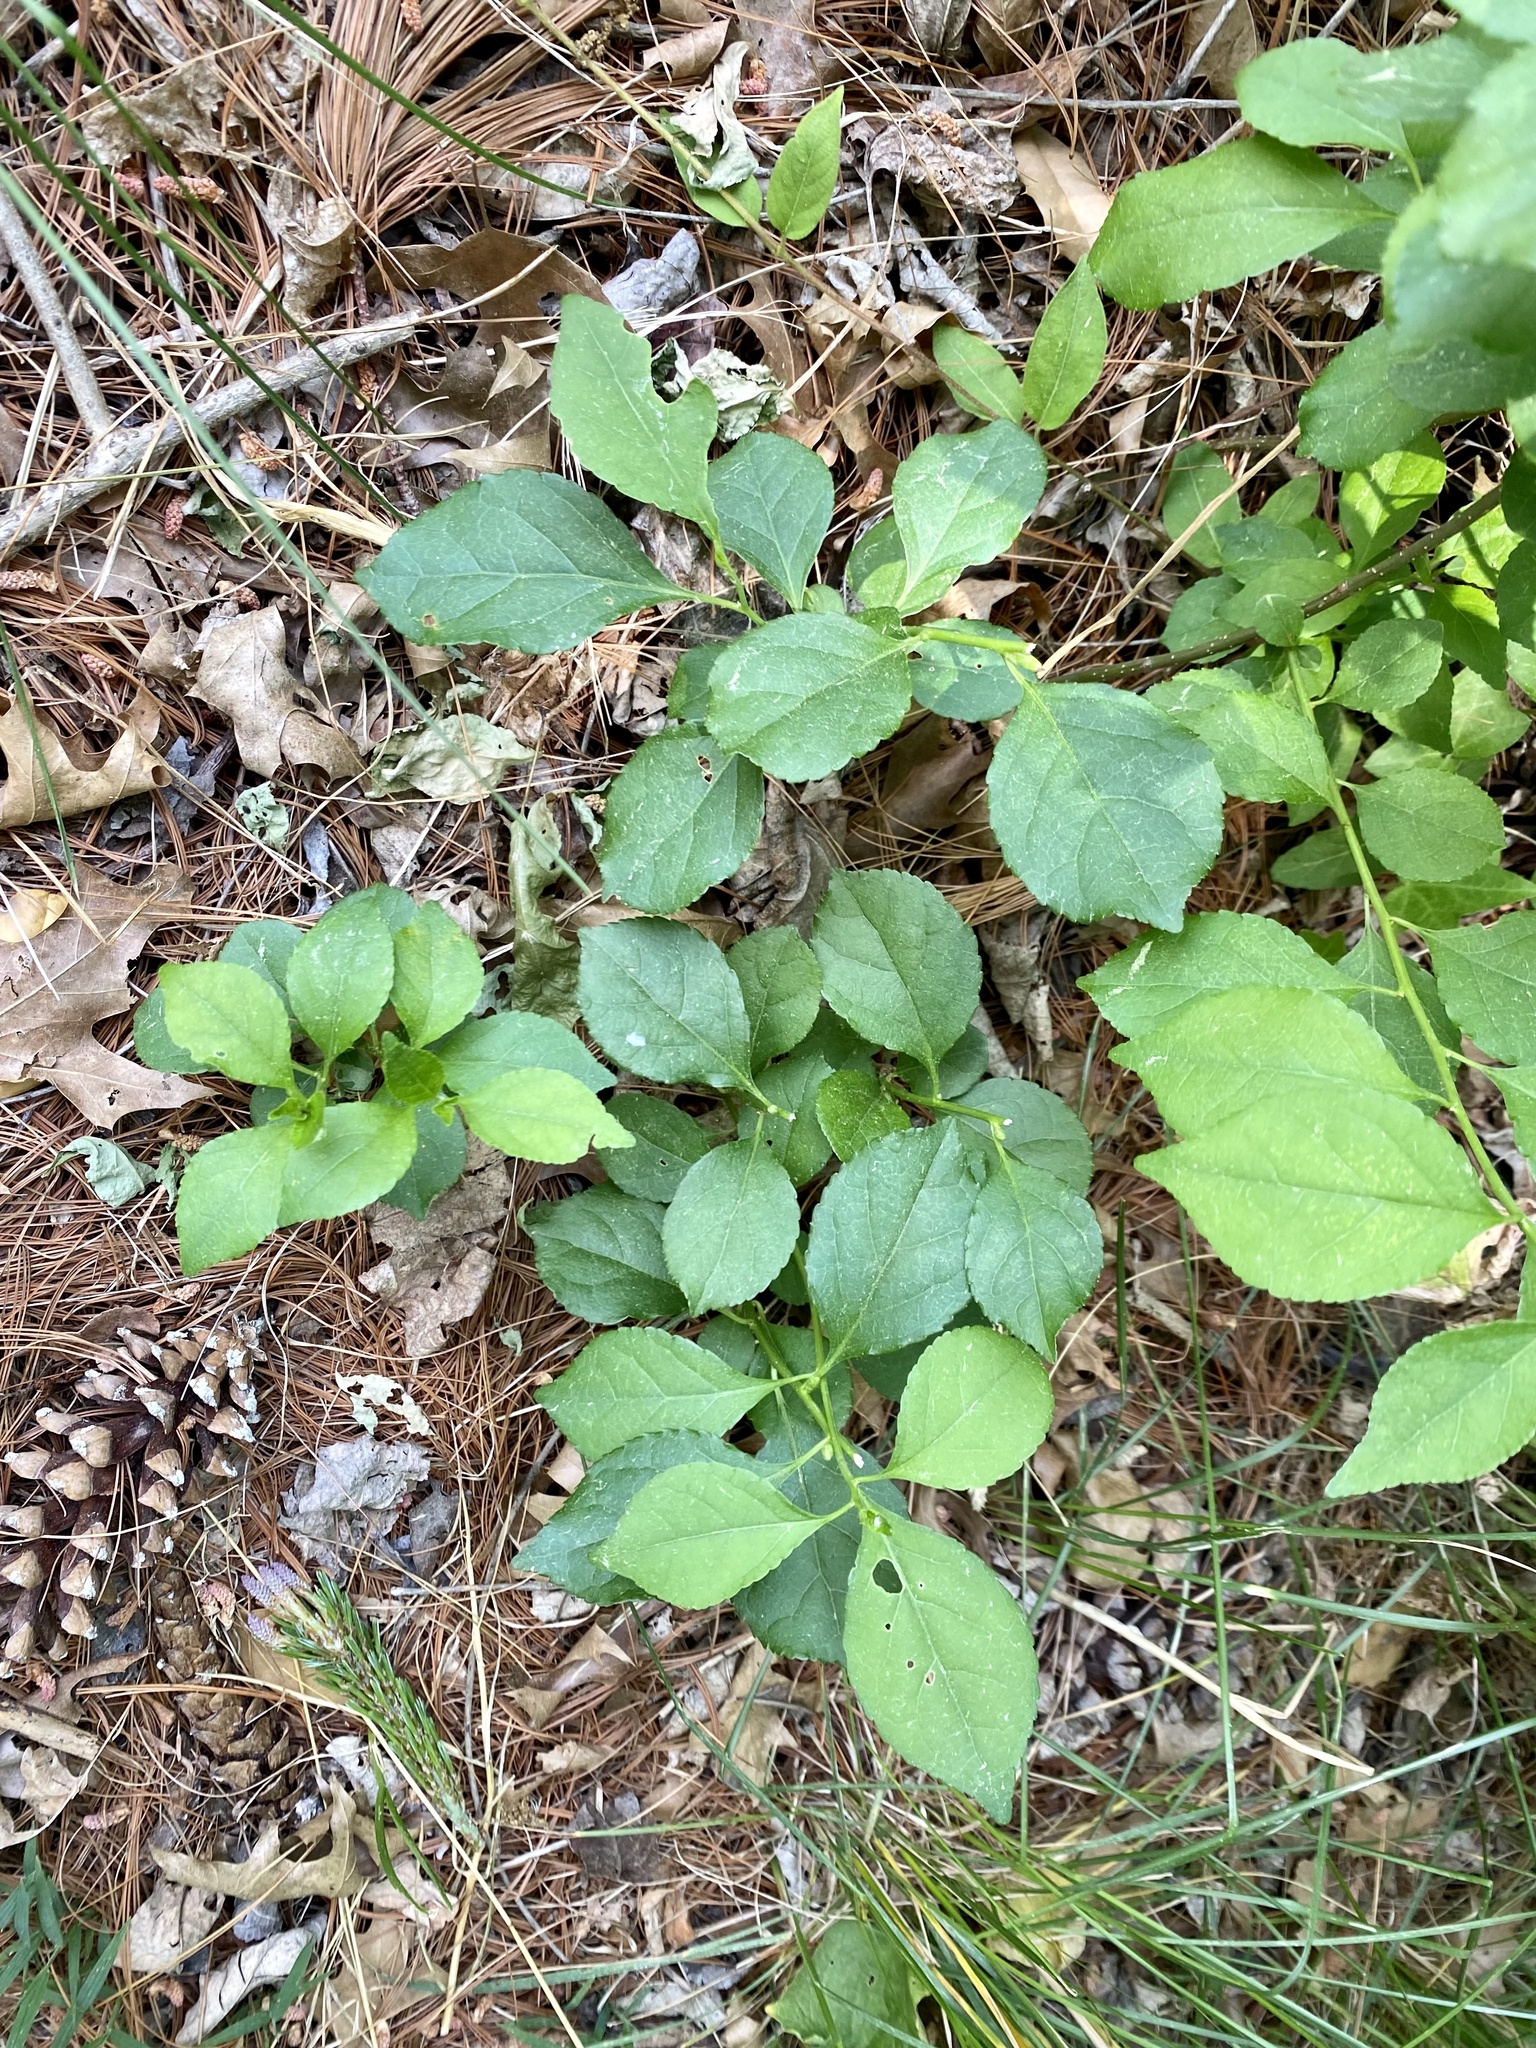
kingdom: Plantae
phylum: Tracheophyta
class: Magnoliopsida
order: Celastrales
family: Celastraceae
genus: Celastrus
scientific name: Celastrus orbiculatus
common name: Oriental bittersweet
